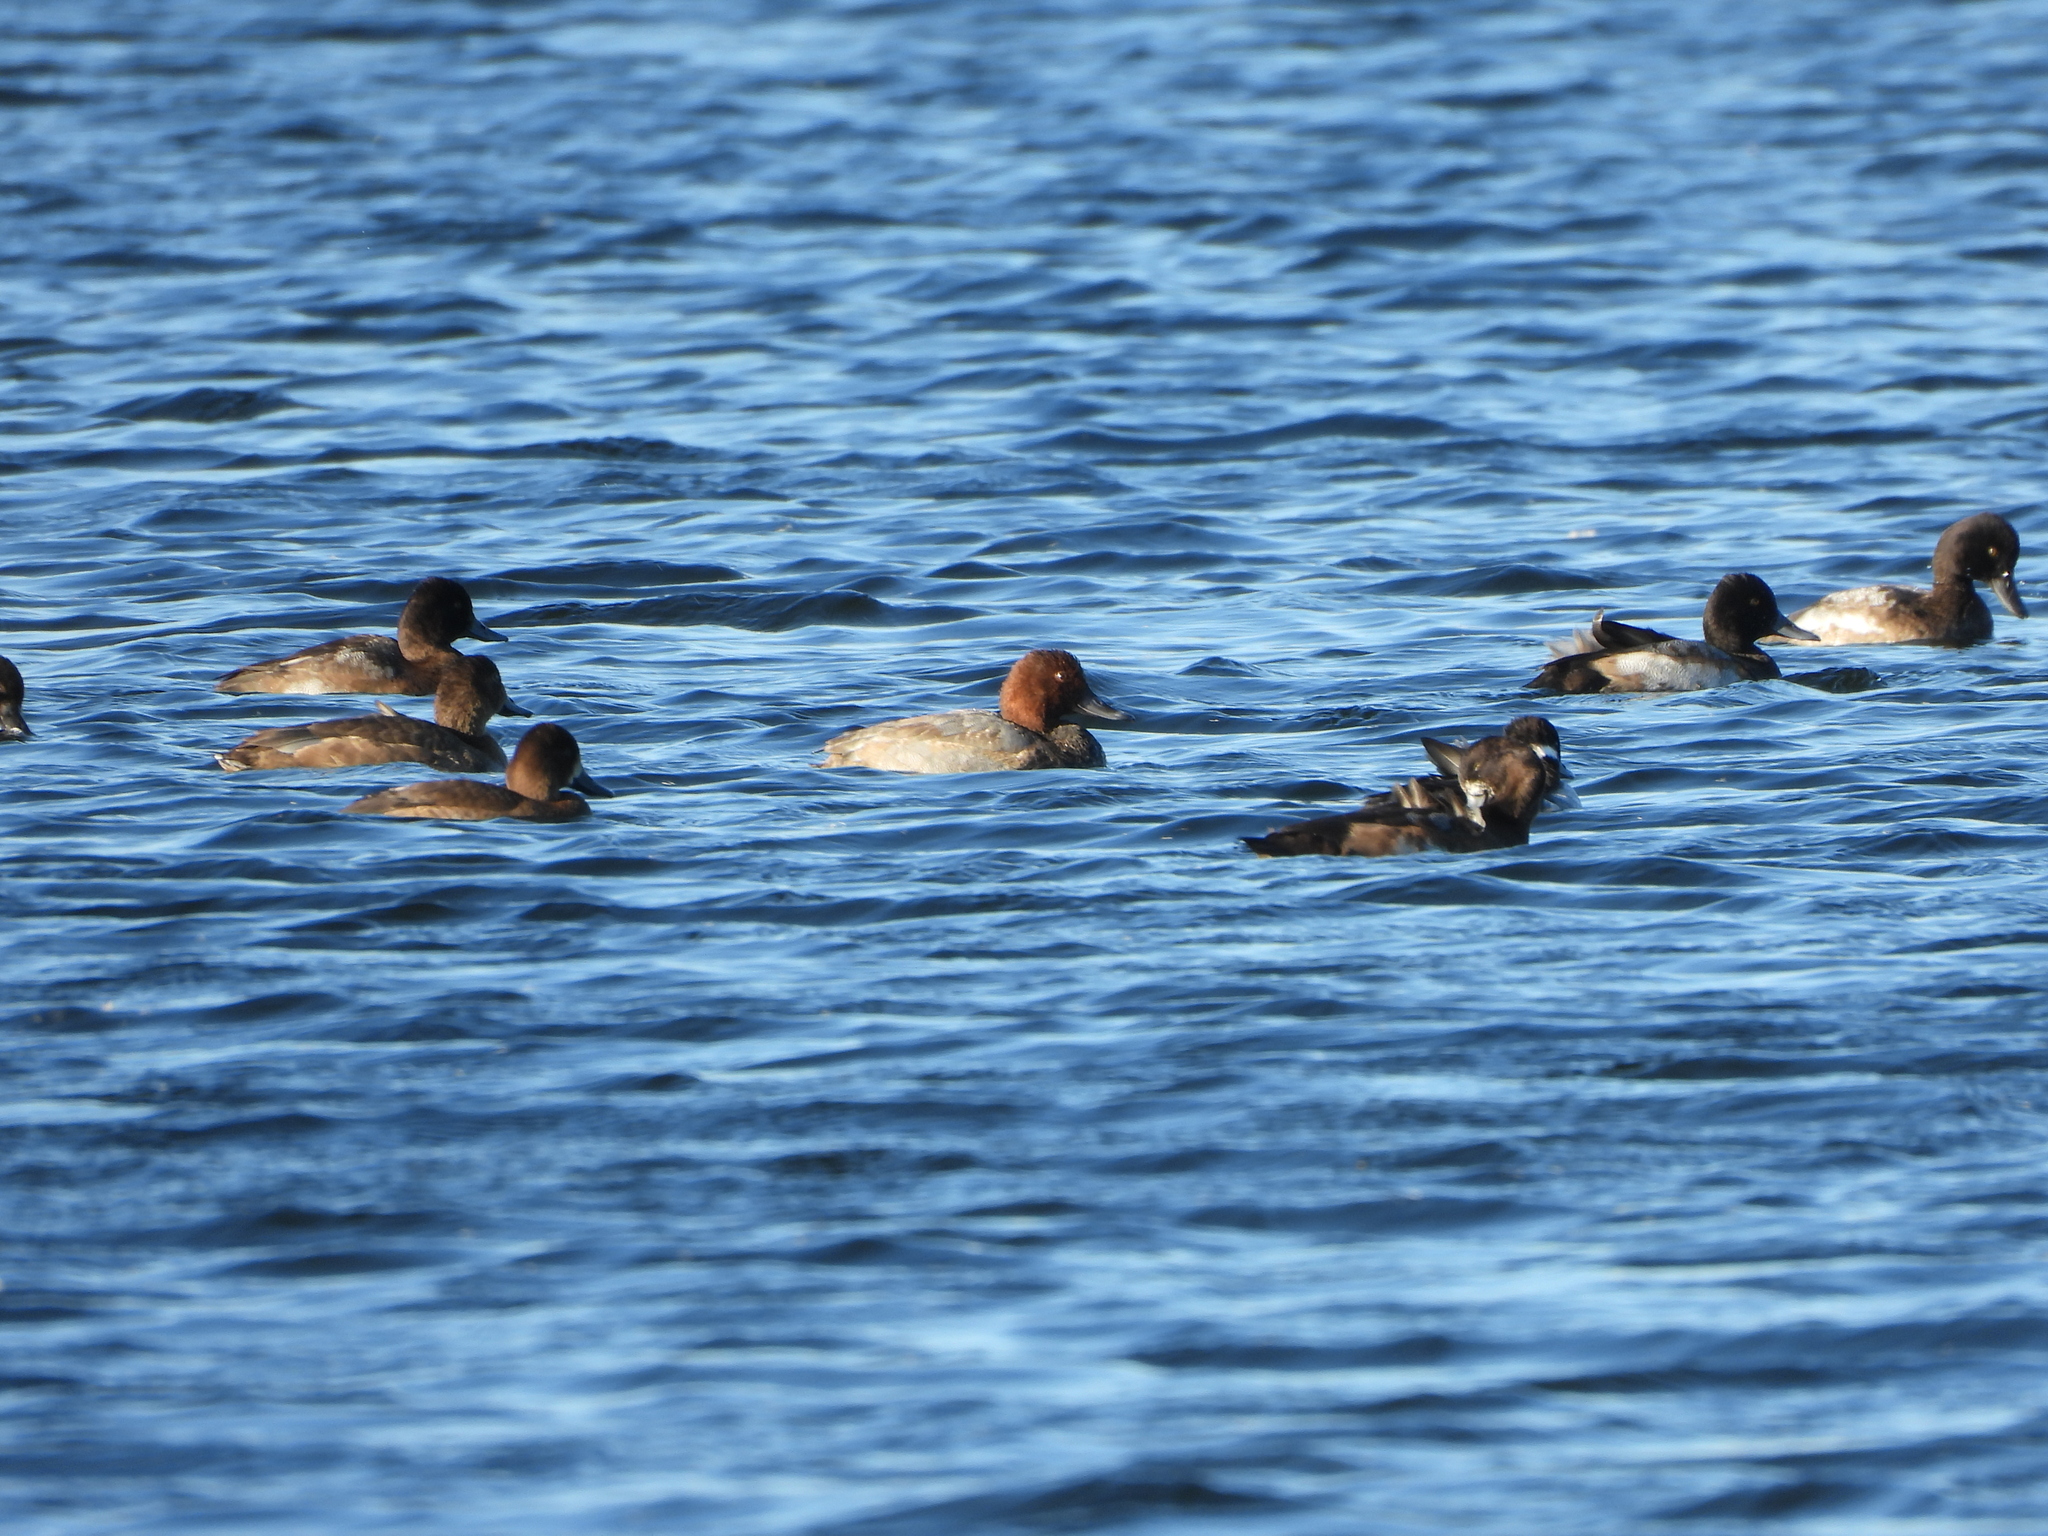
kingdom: Animalia
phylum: Chordata
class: Aves
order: Anseriformes
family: Anatidae
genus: Aythya
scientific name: Aythya americana
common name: Redhead
